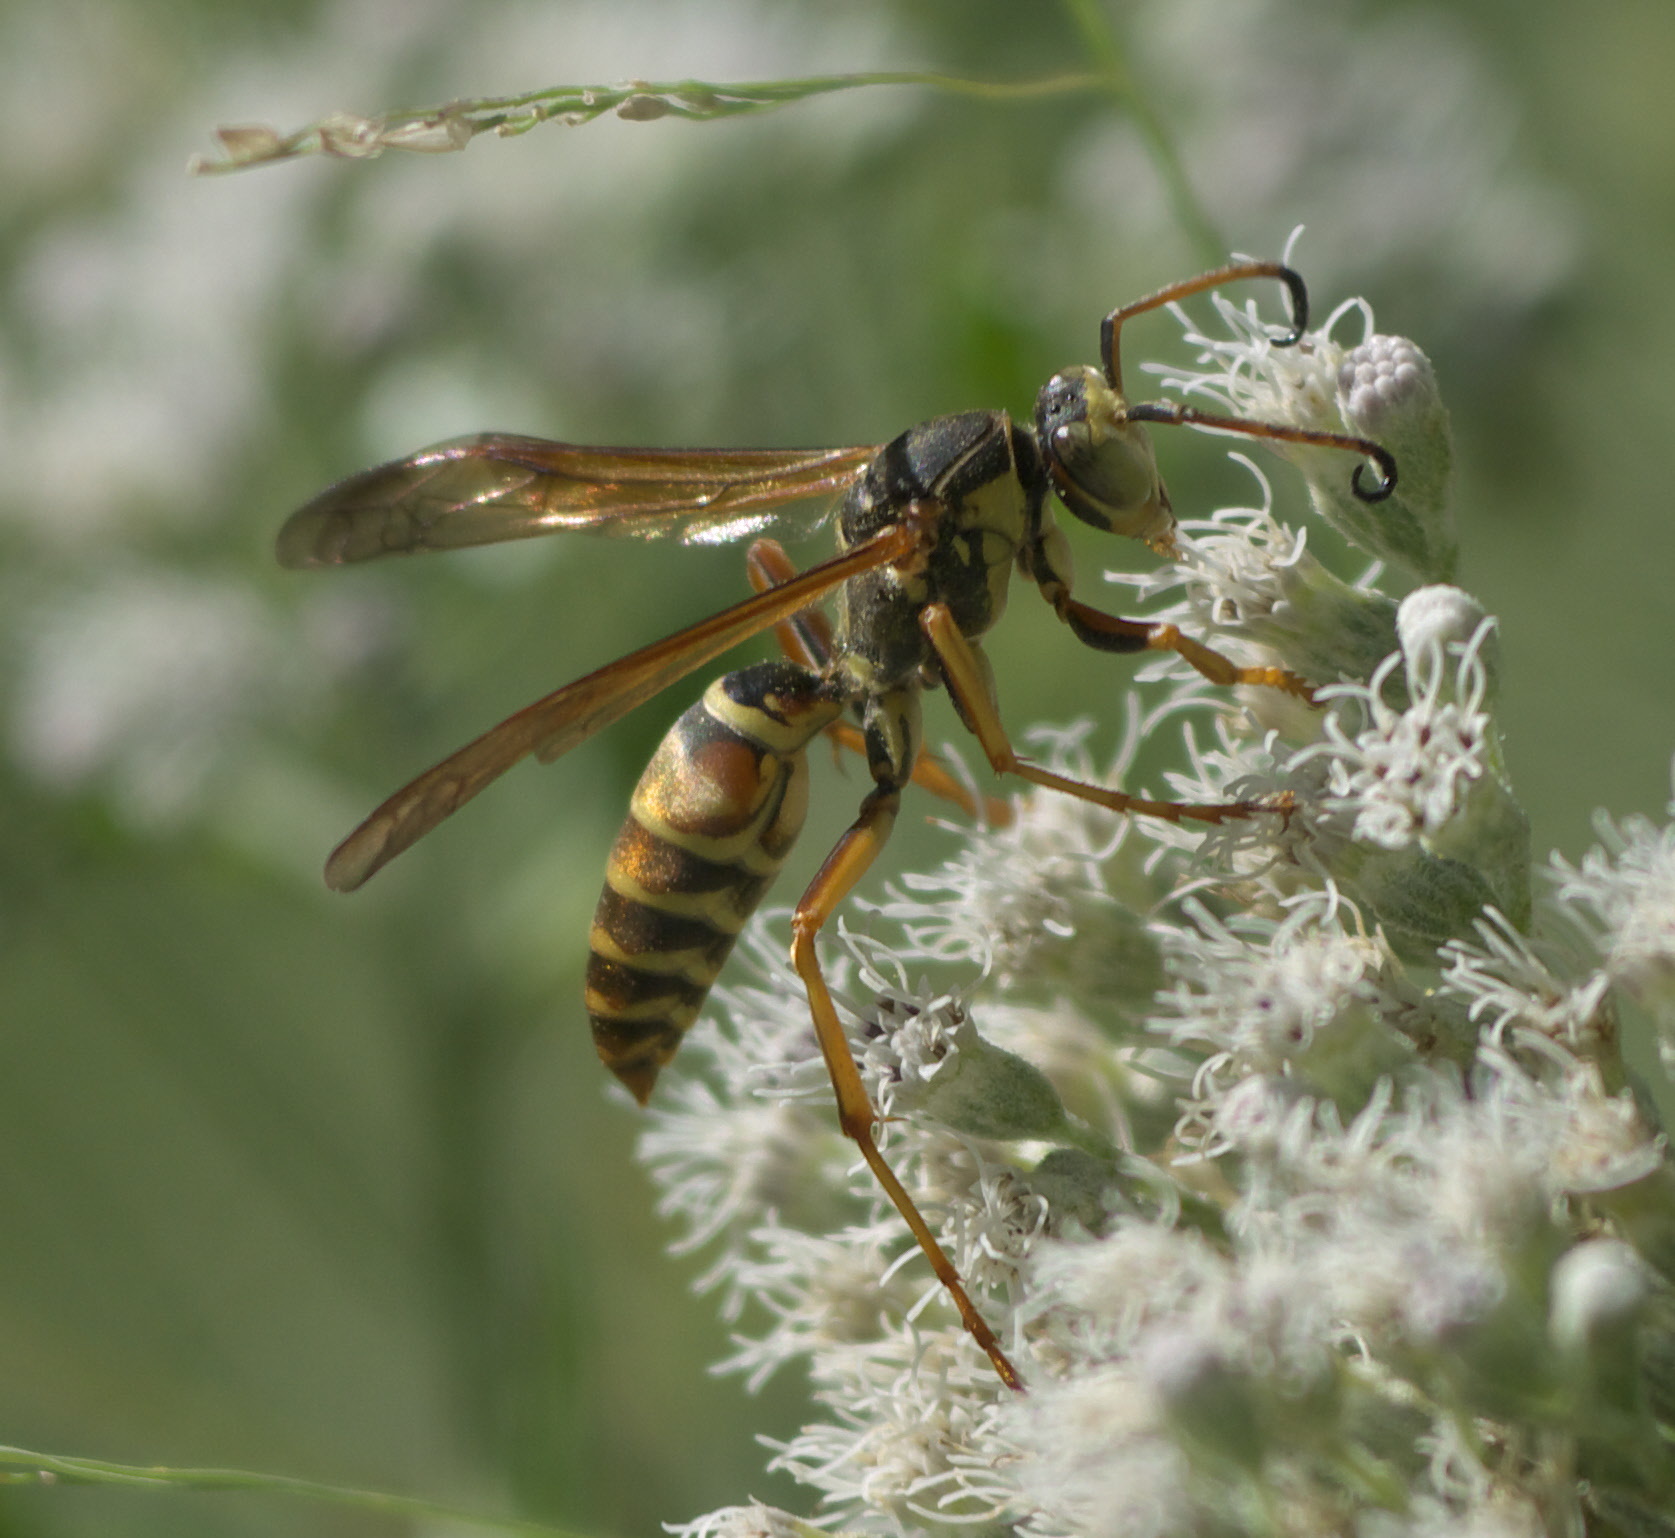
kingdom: Animalia
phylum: Arthropoda
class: Insecta
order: Hymenoptera
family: Eumenidae
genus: Polistes
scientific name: Polistes fuscatus
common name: Dark paper wasp
